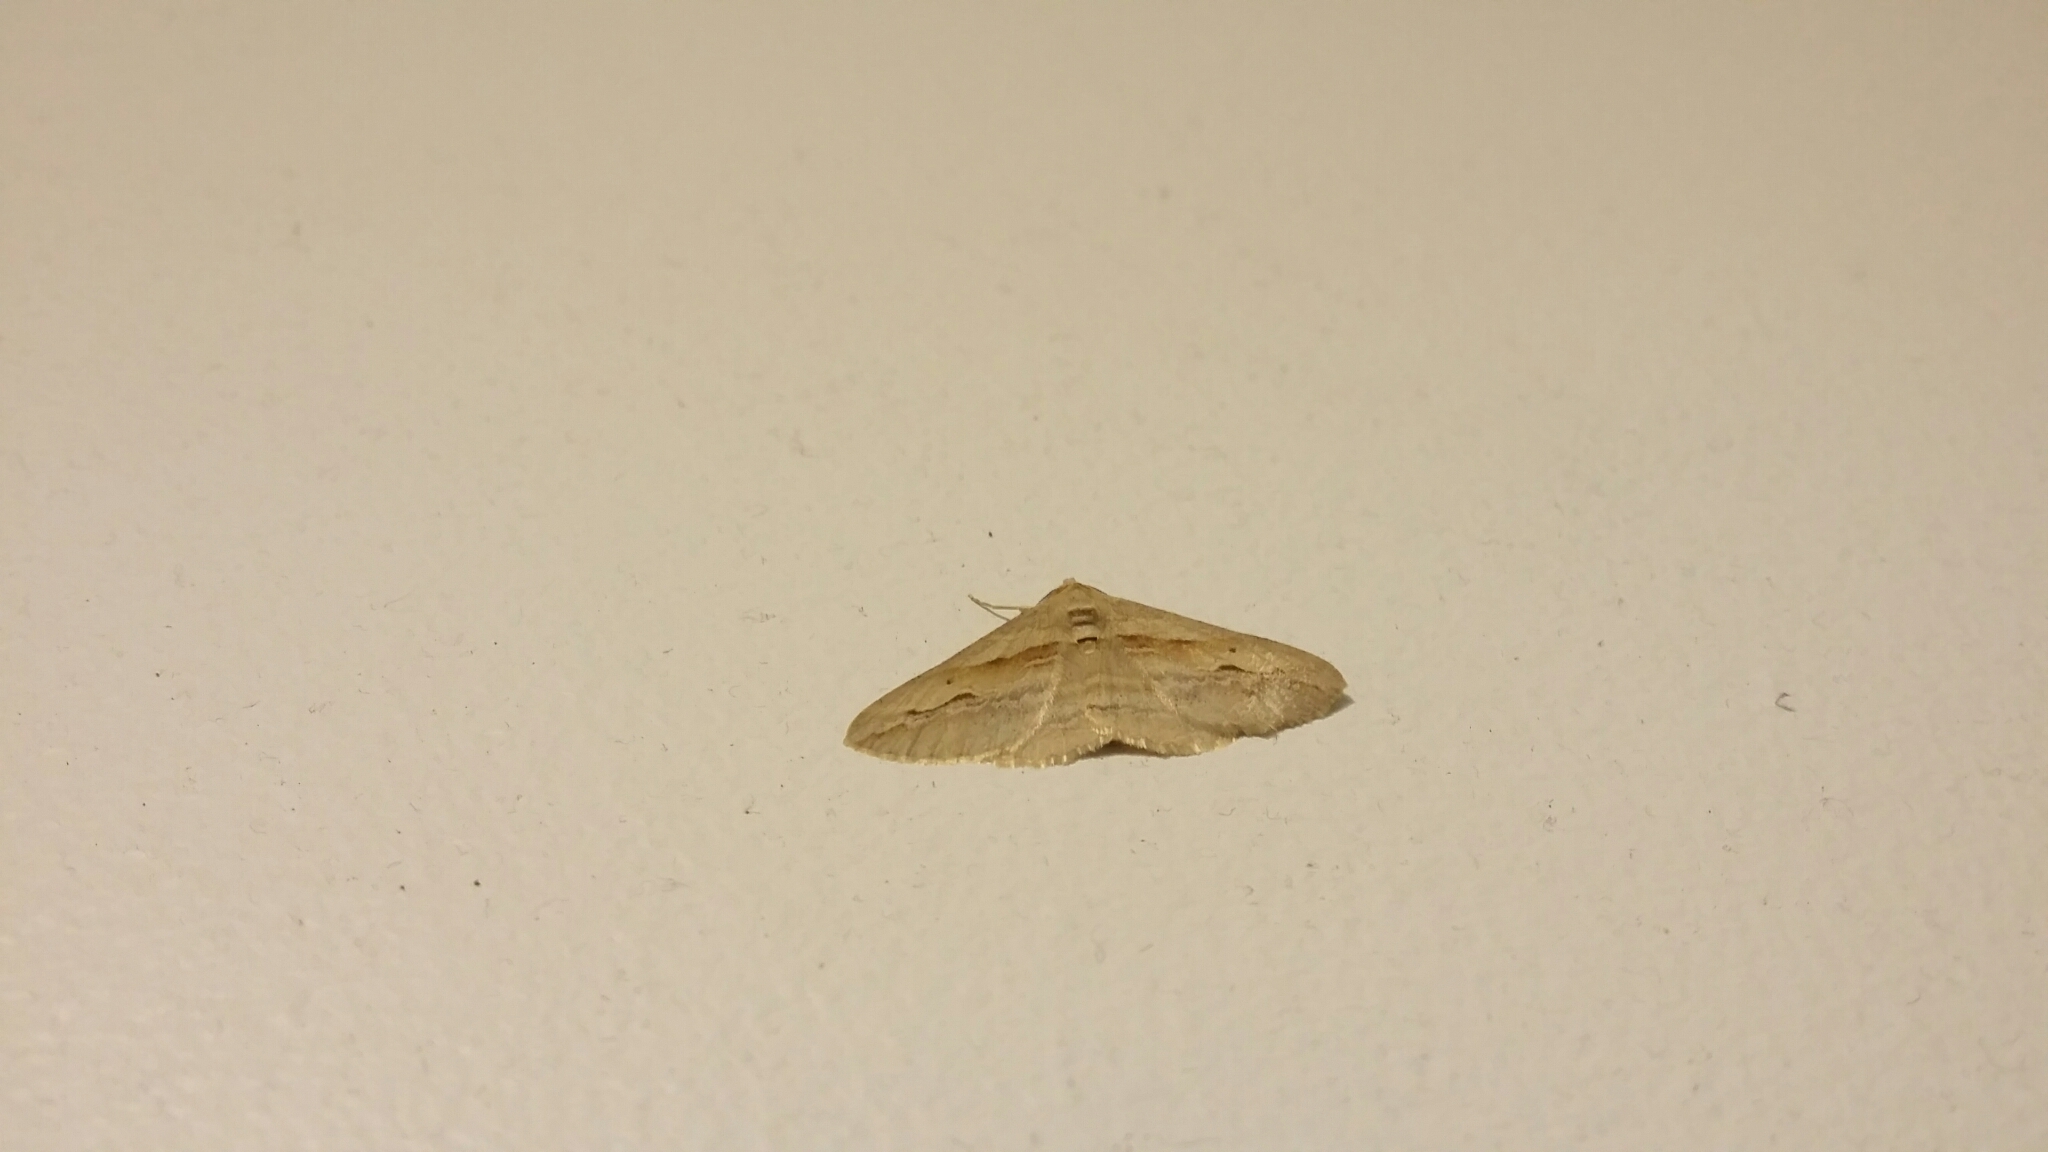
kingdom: Animalia
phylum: Arthropoda
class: Insecta
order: Lepidoptera
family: Geometridae
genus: Syneora
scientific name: Syneora leucanthes
